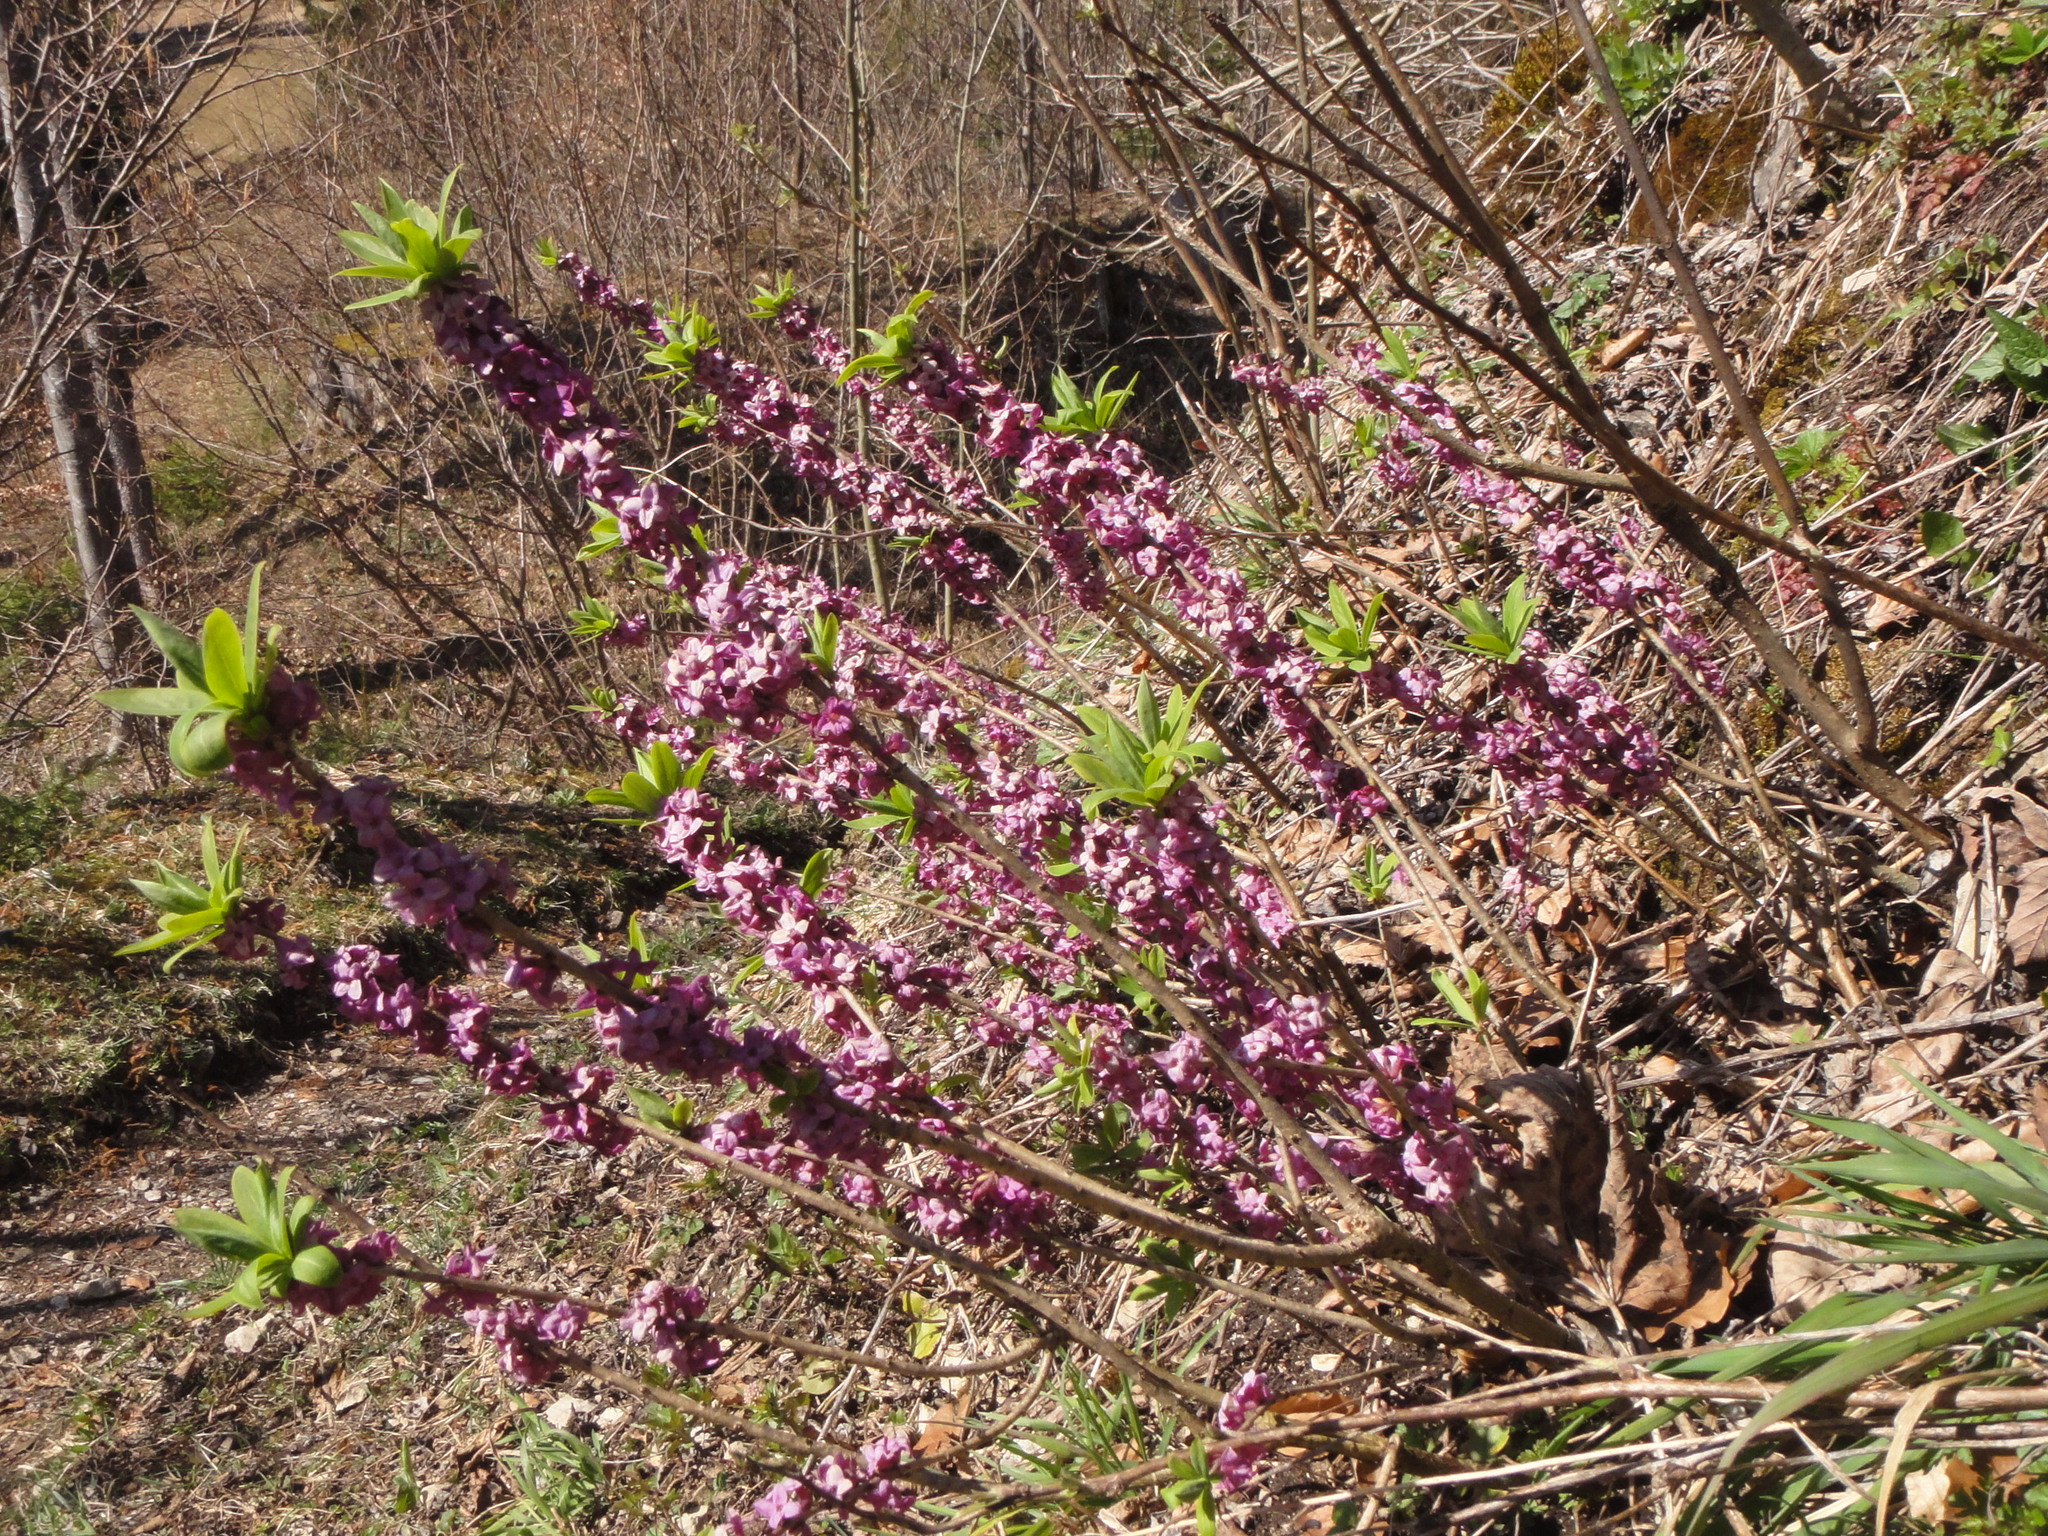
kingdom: Plantae
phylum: Tracheophyta
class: Magnoliopsida
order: Malvales
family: Thymelaeaceae
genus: Daphne
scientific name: Daphne mezereum
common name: Mezereon
